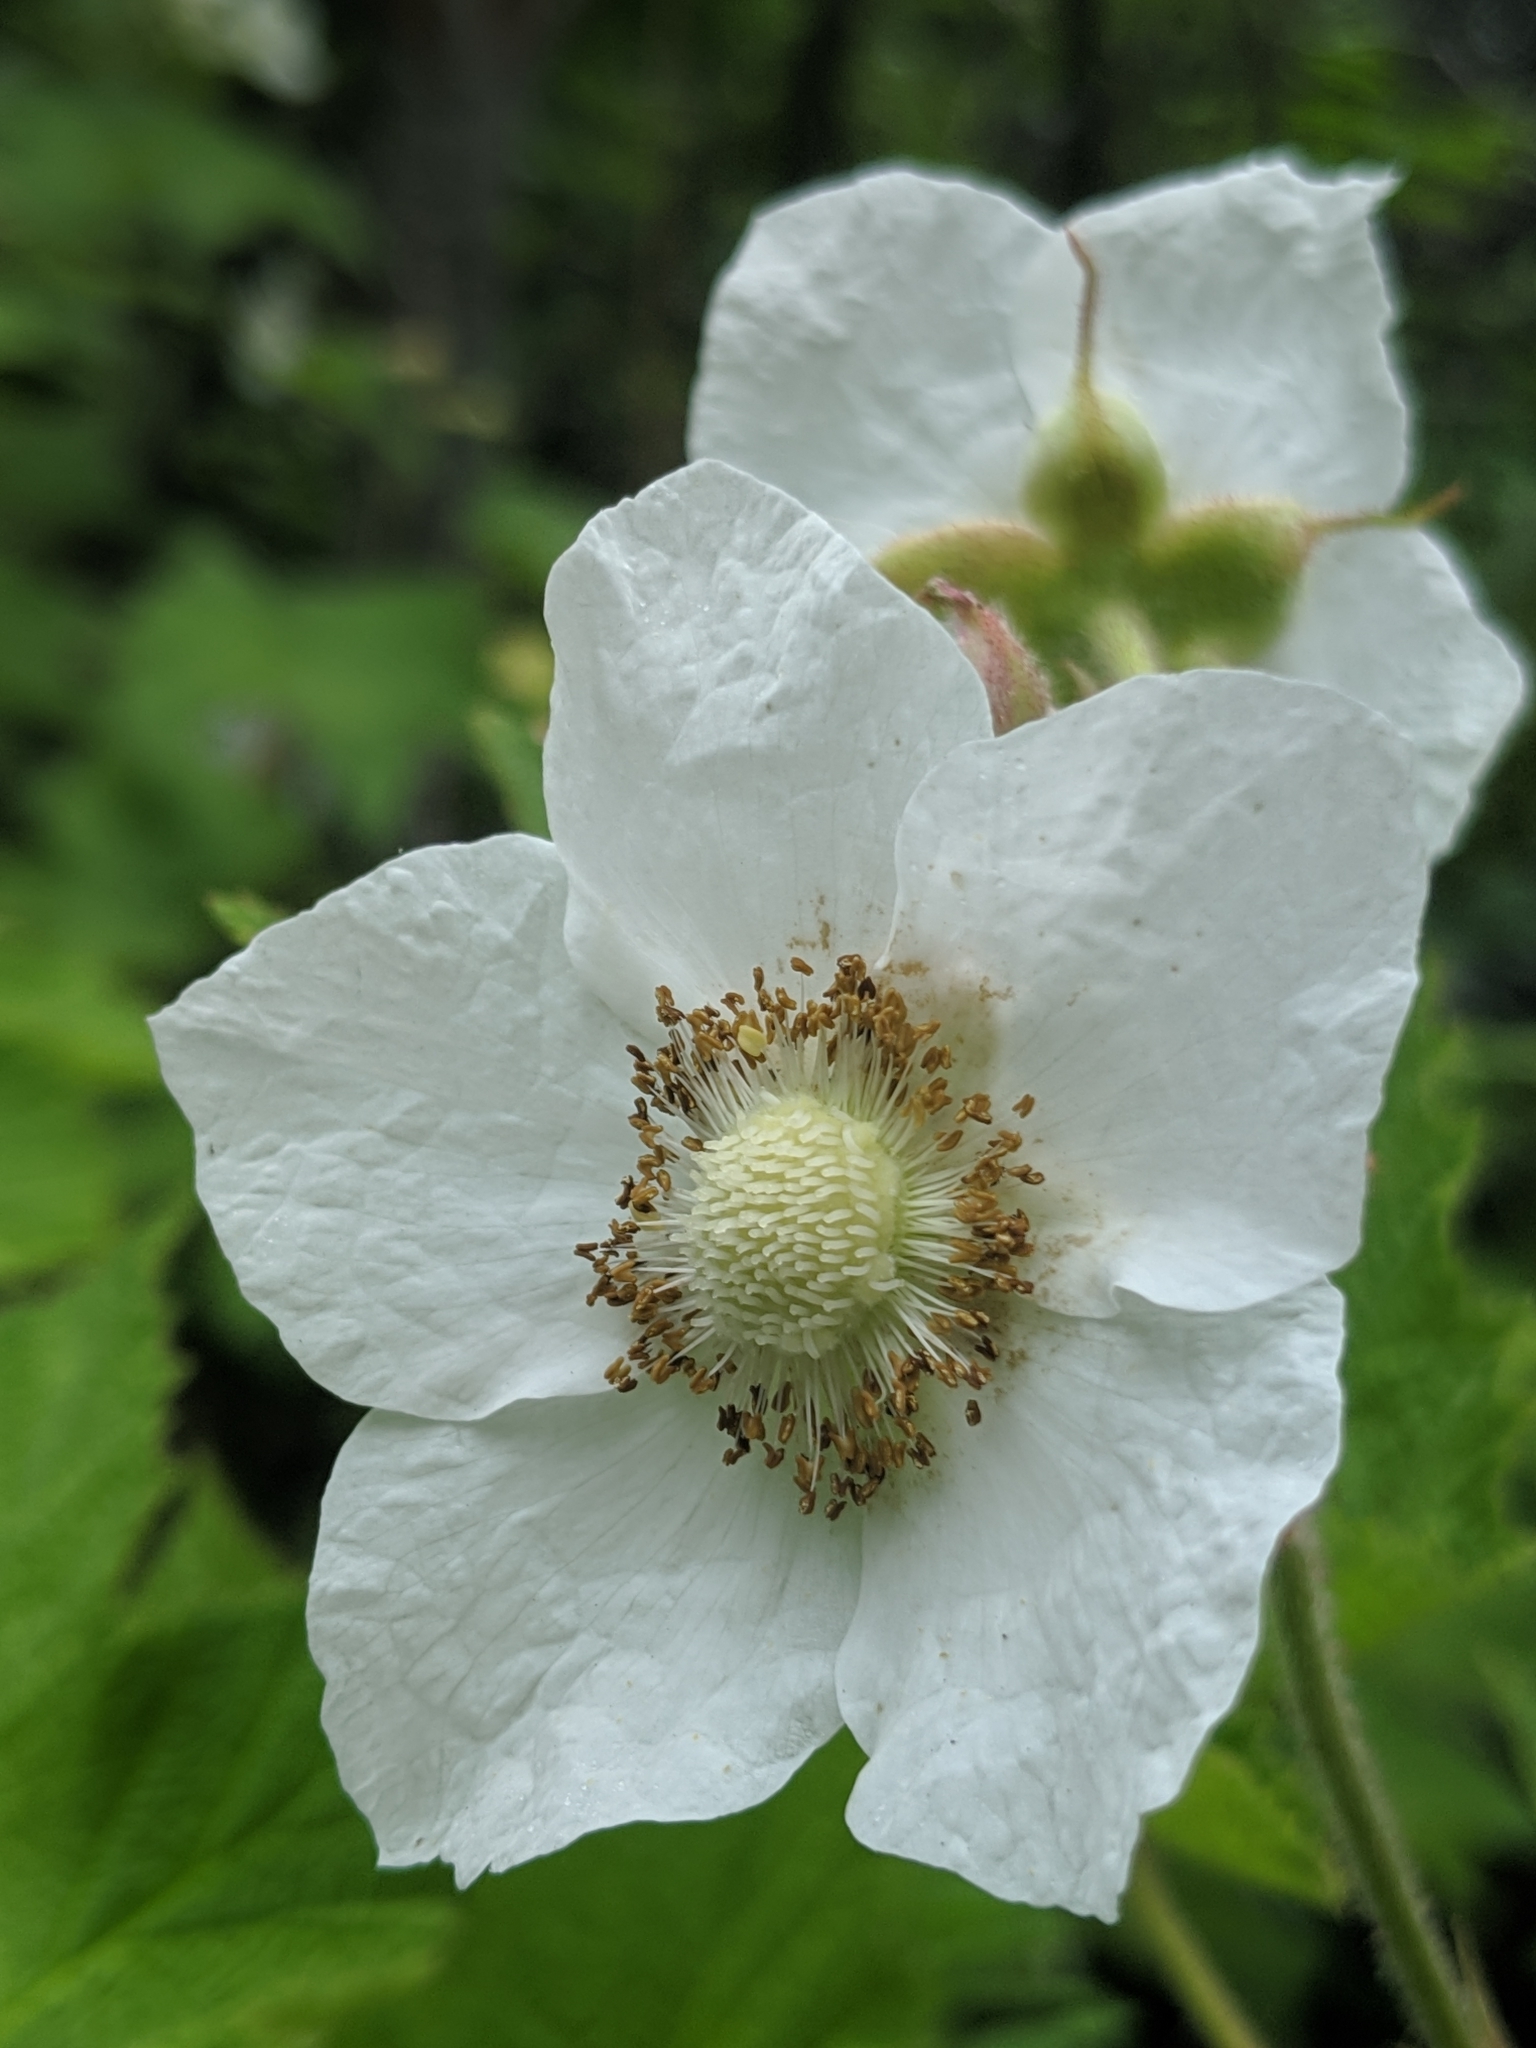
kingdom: Plantae
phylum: Tracheophyta
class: Magnoliopsida
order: Rosales
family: Rosaceae
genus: Rubus
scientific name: Rubus parviflorus
